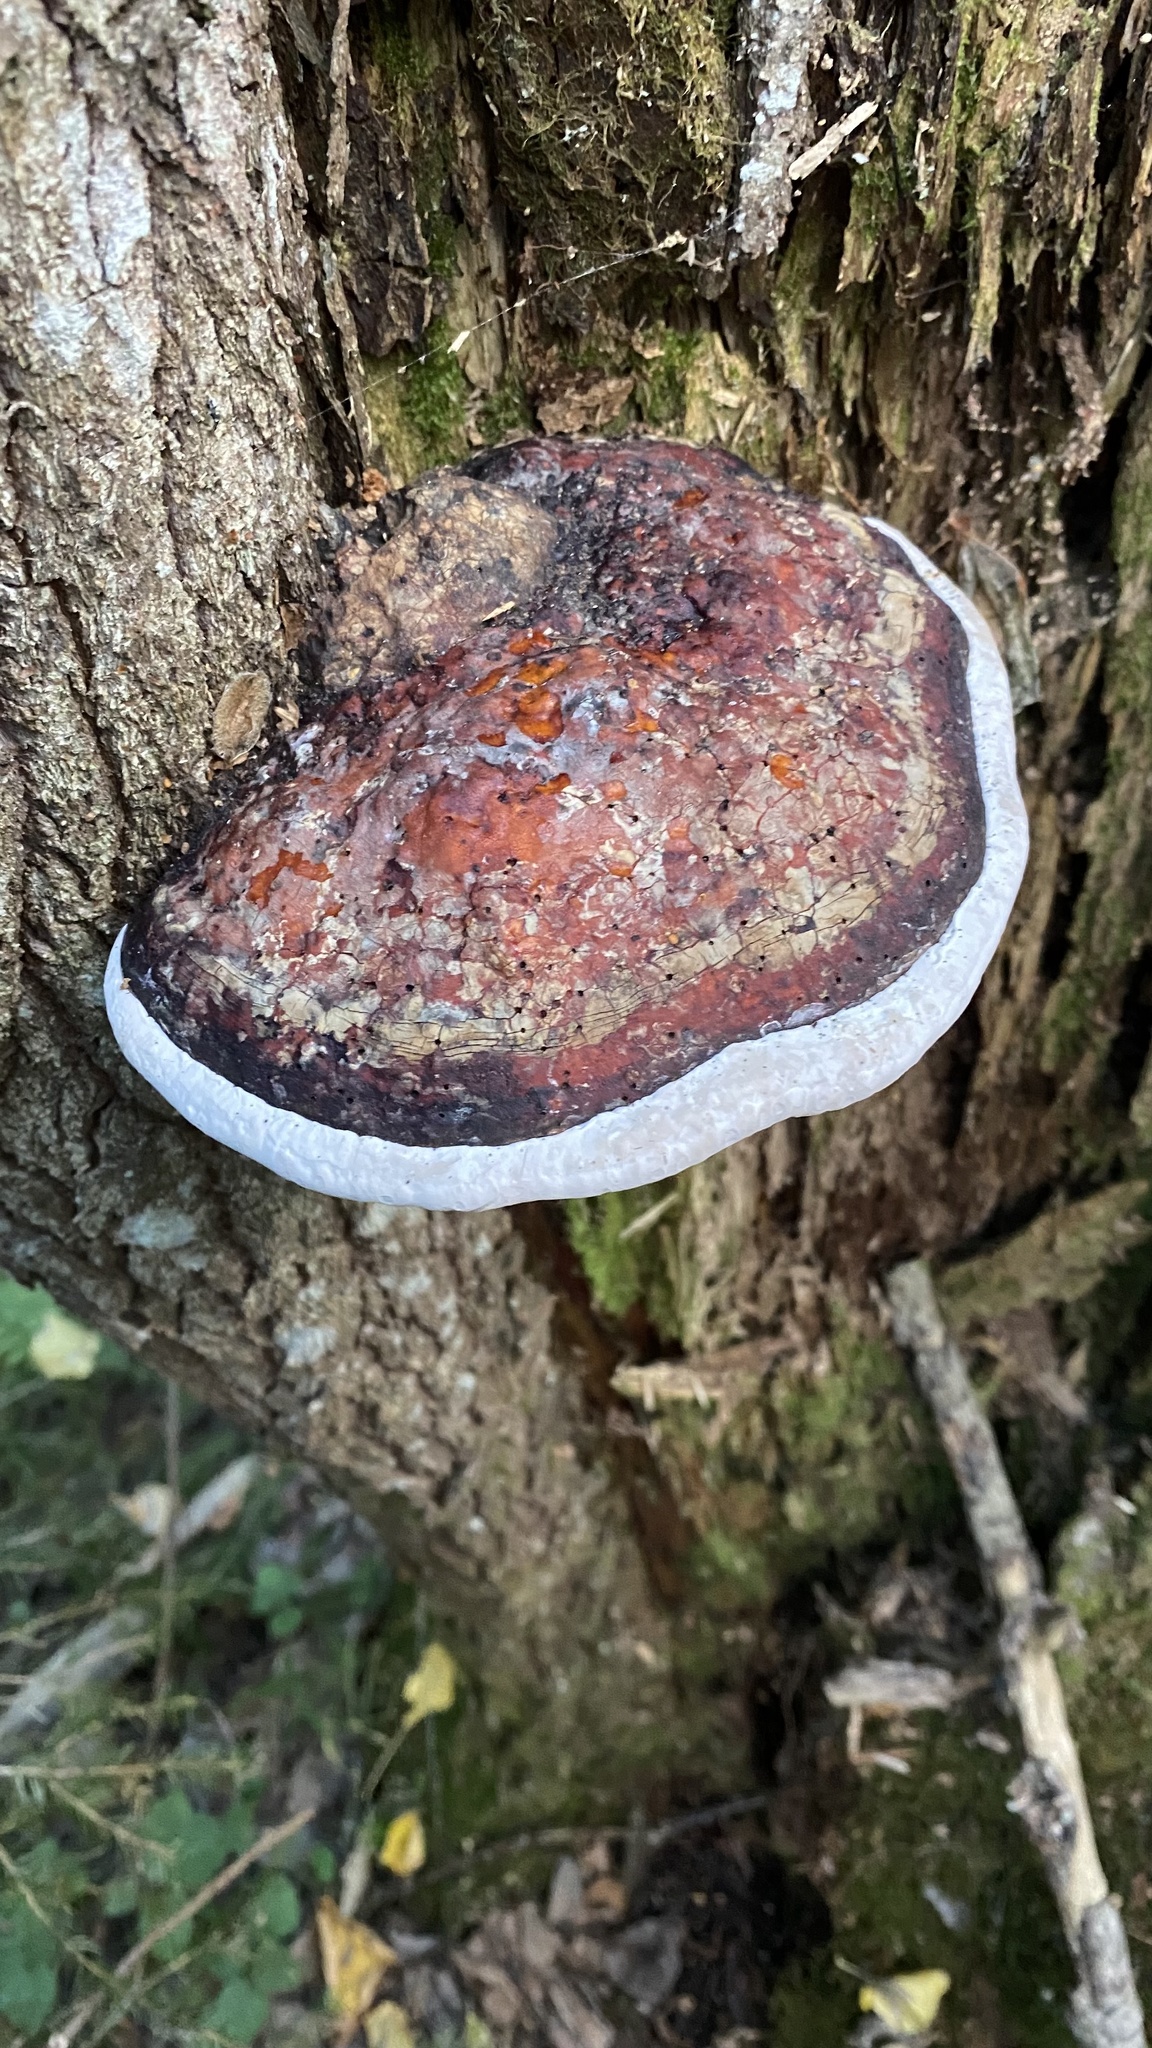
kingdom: Fungi
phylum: Basidiomycota
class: Agaricomycetes
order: Polyporales
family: Fomitopsidaceae
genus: Fomitopsis
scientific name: Fomitopsis pinicola
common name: Red-belted bracket
